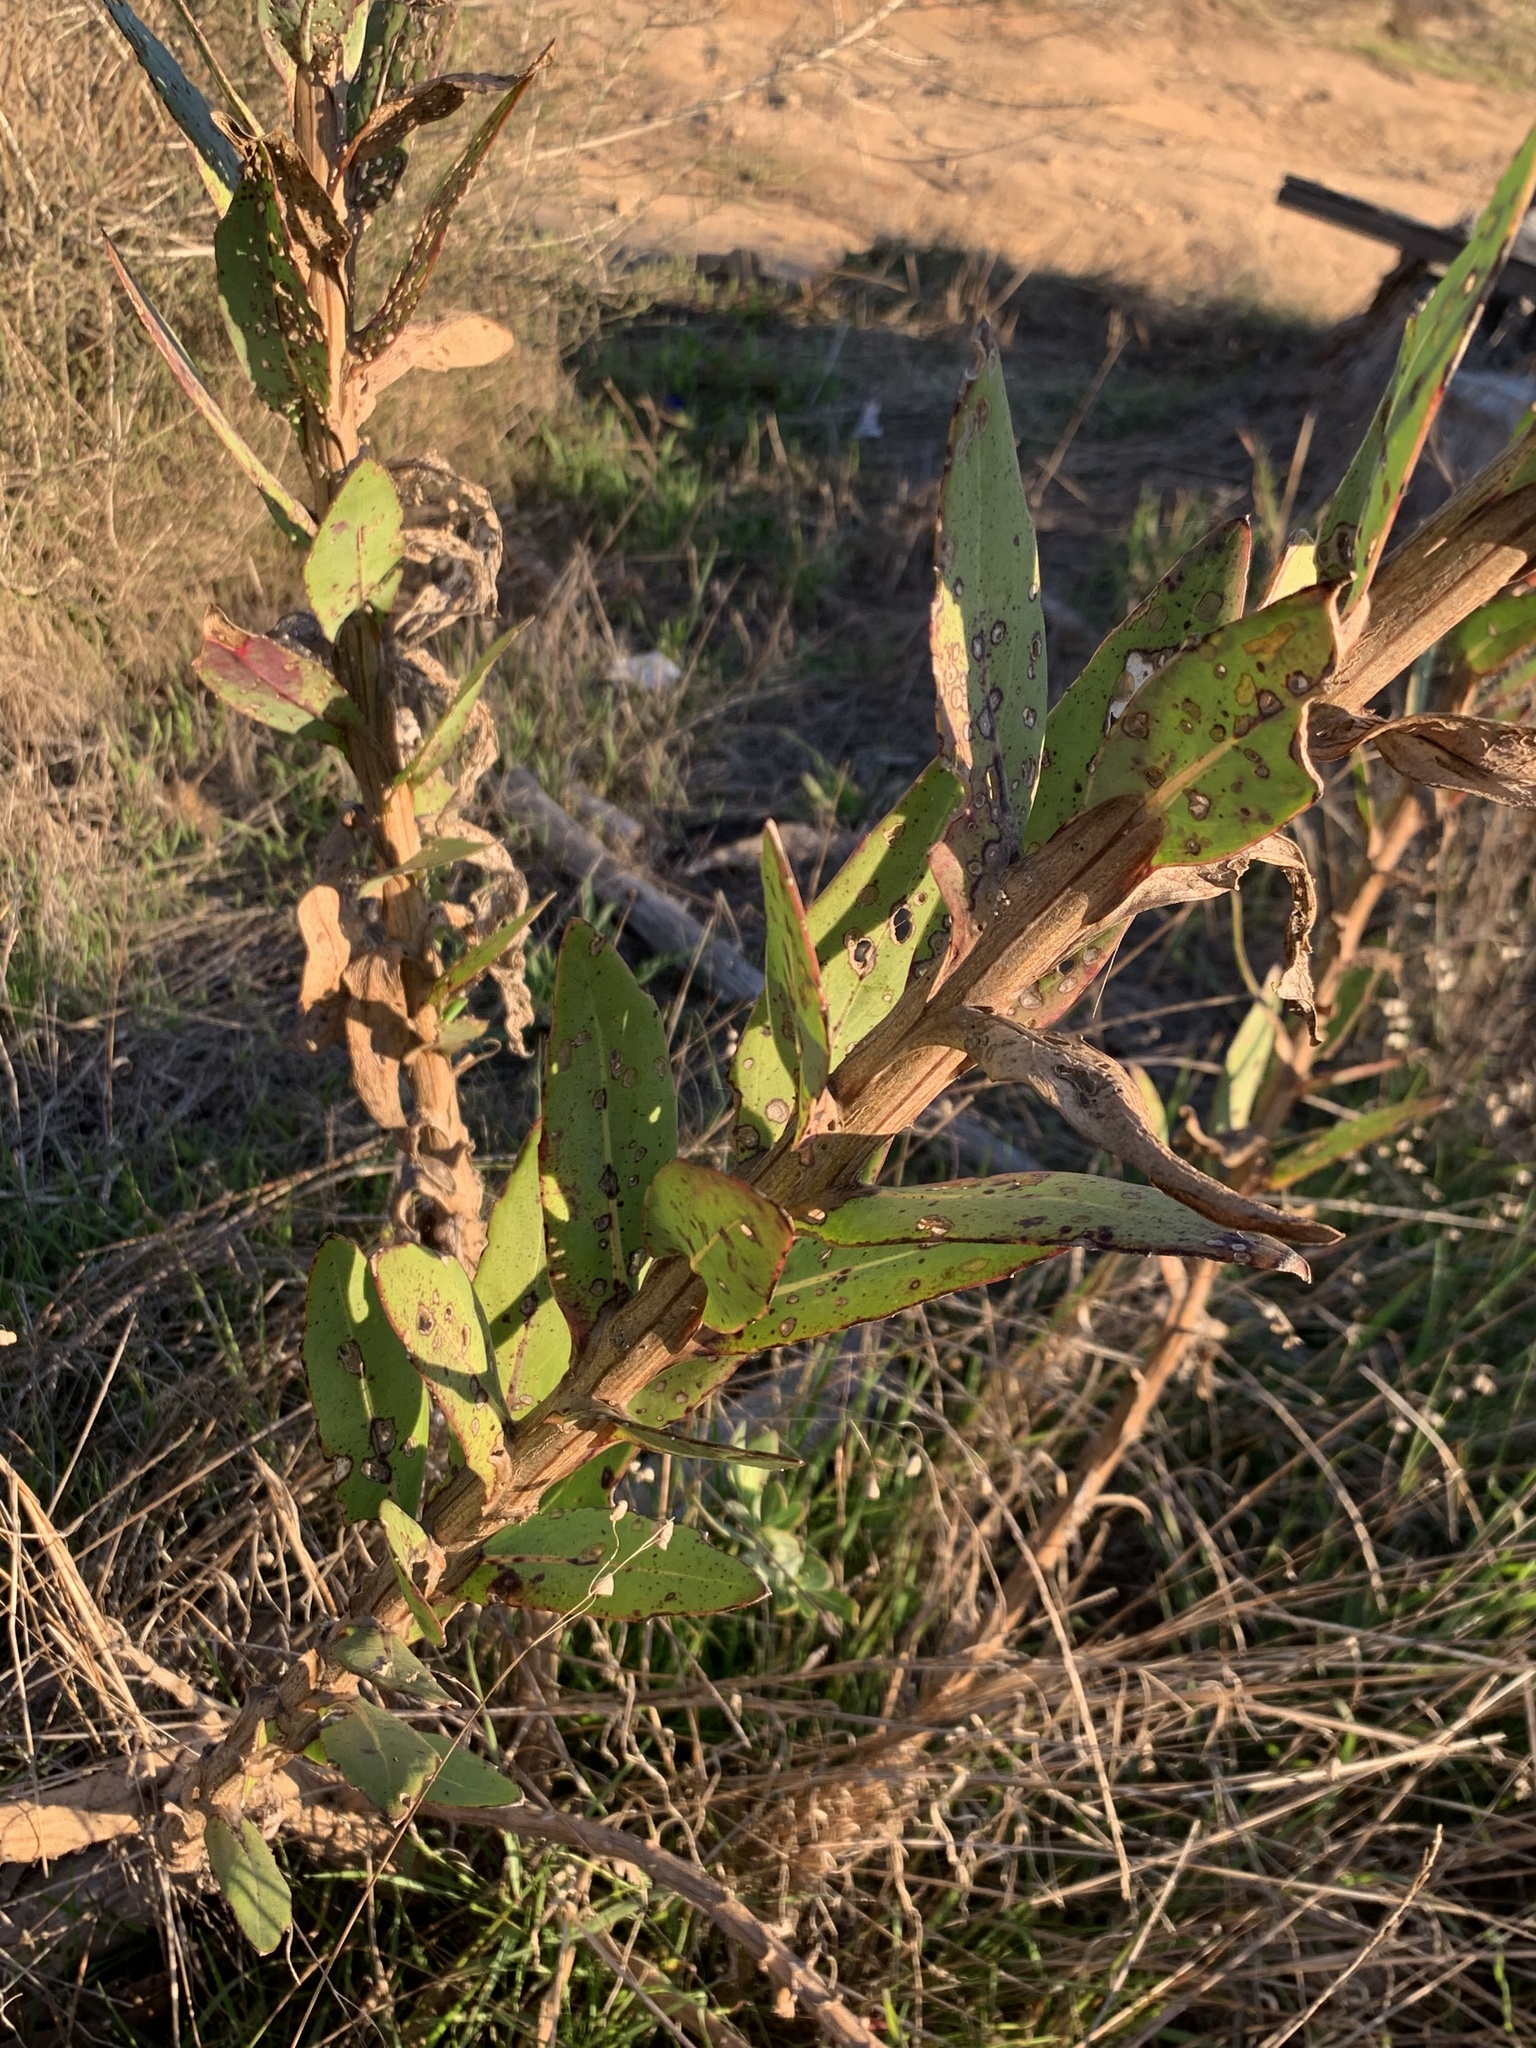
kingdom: Plantae
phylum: Tracheophyta
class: Magnoliopsida
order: Asterales
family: Asteraceae
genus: Othonna
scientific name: Othonna quinquedentata
